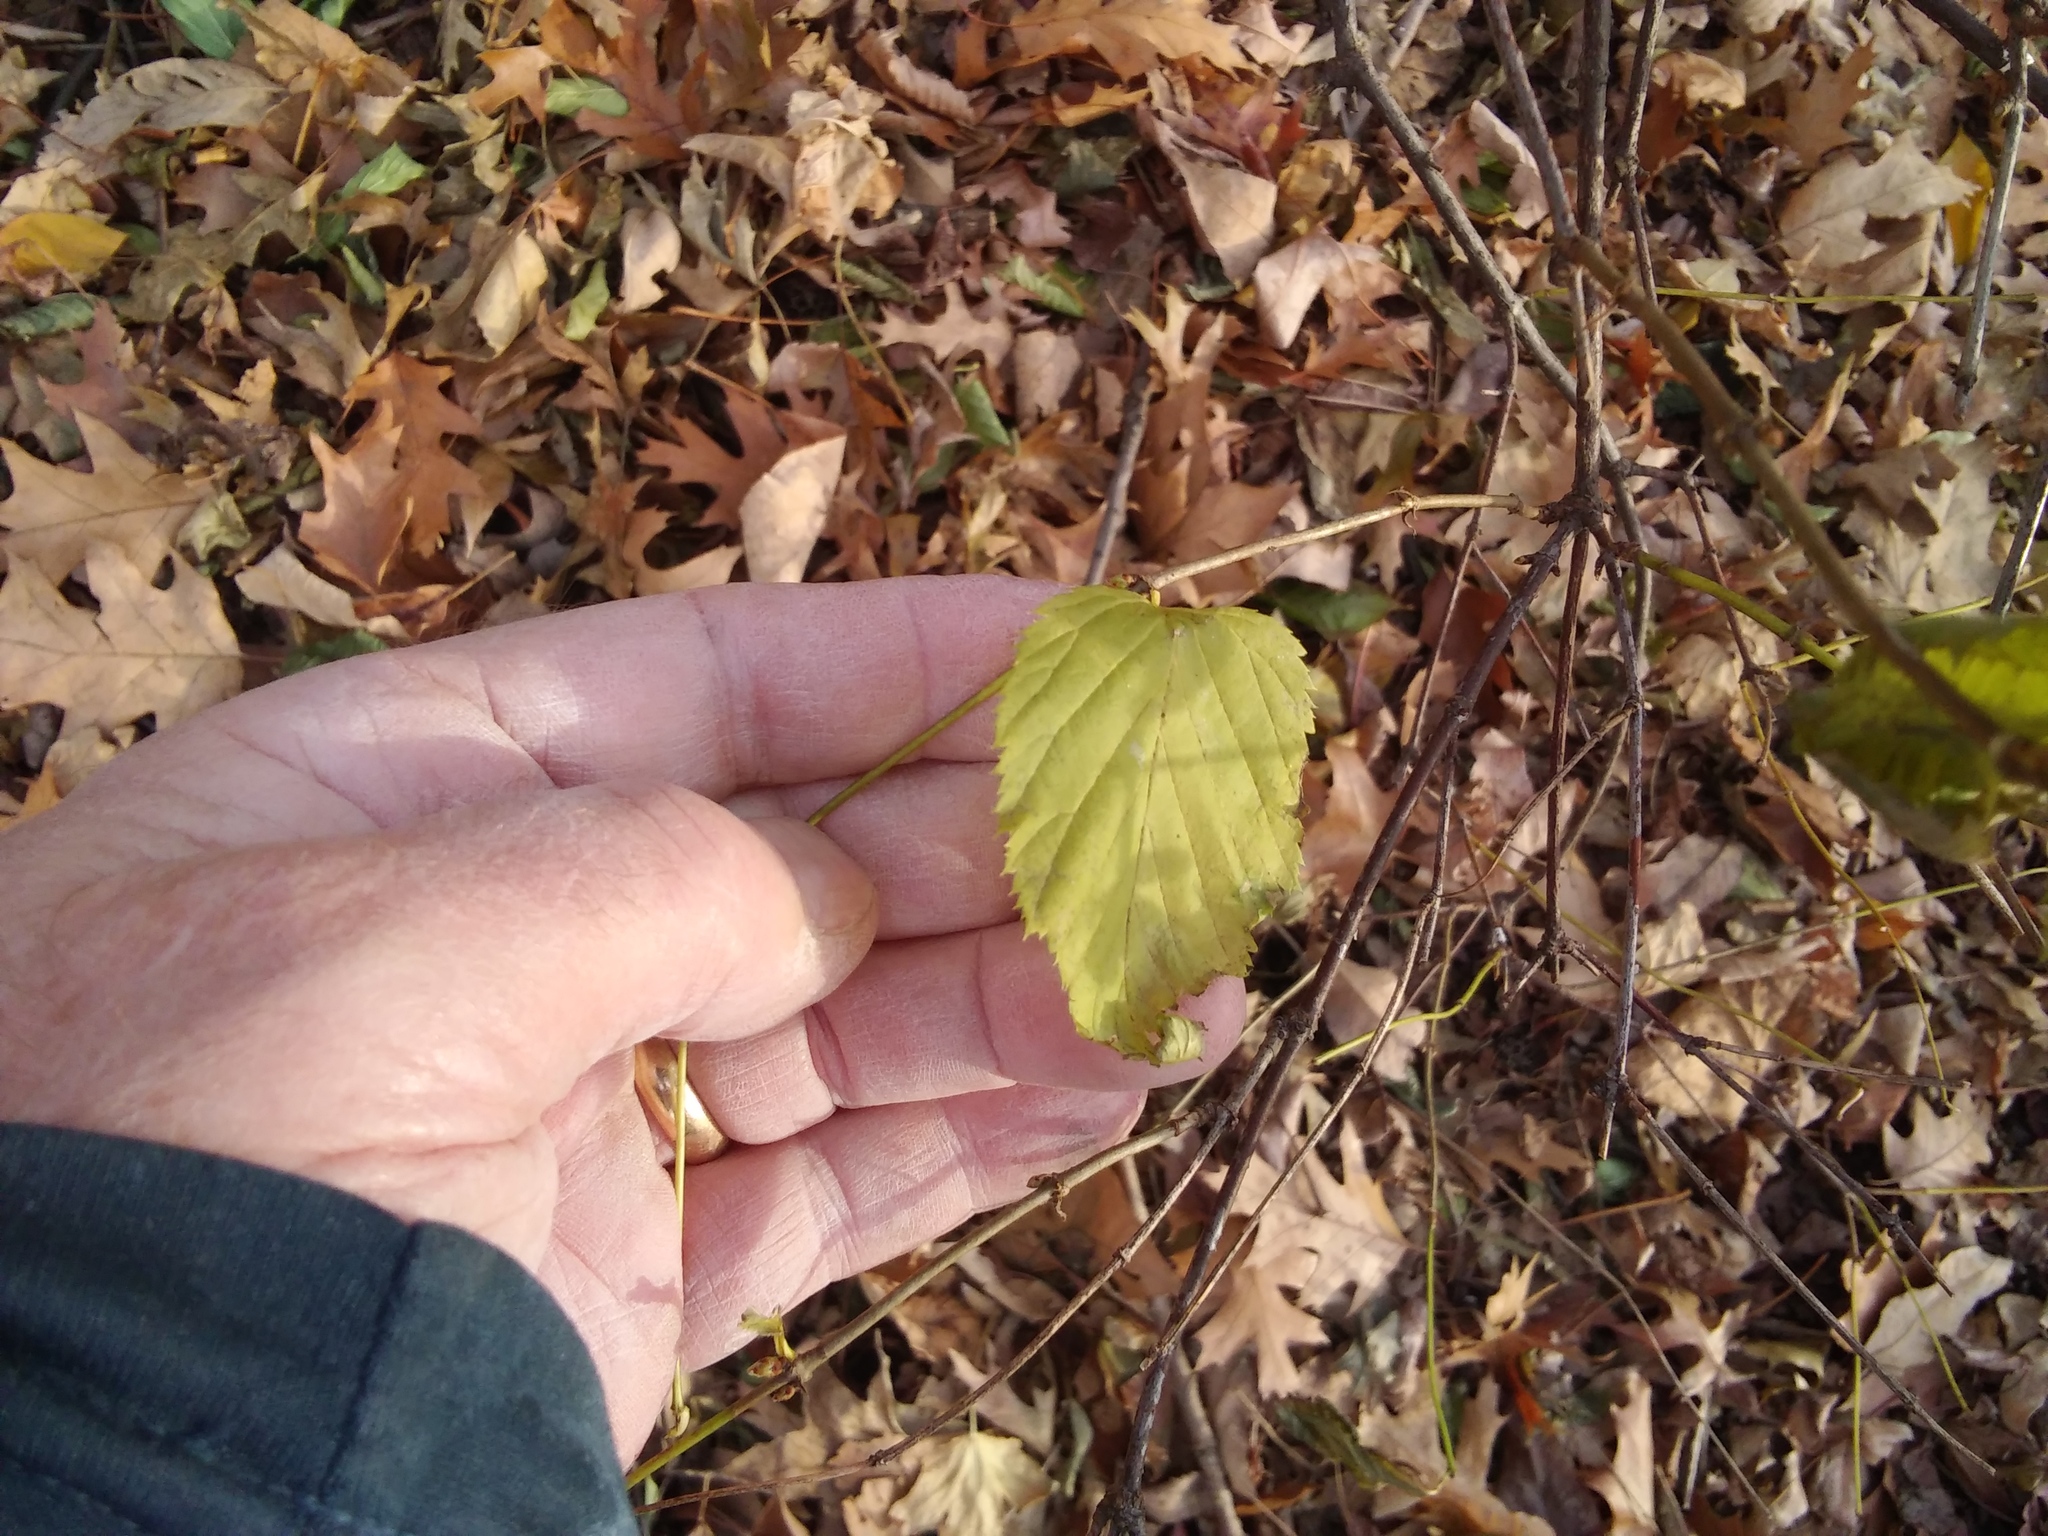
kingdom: Plantae
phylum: Tracheophyta
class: Magnoliopsida
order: Rosales
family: Rosaceae
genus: Rhodotypos
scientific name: Rhodotypos scandens
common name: Jetbead
